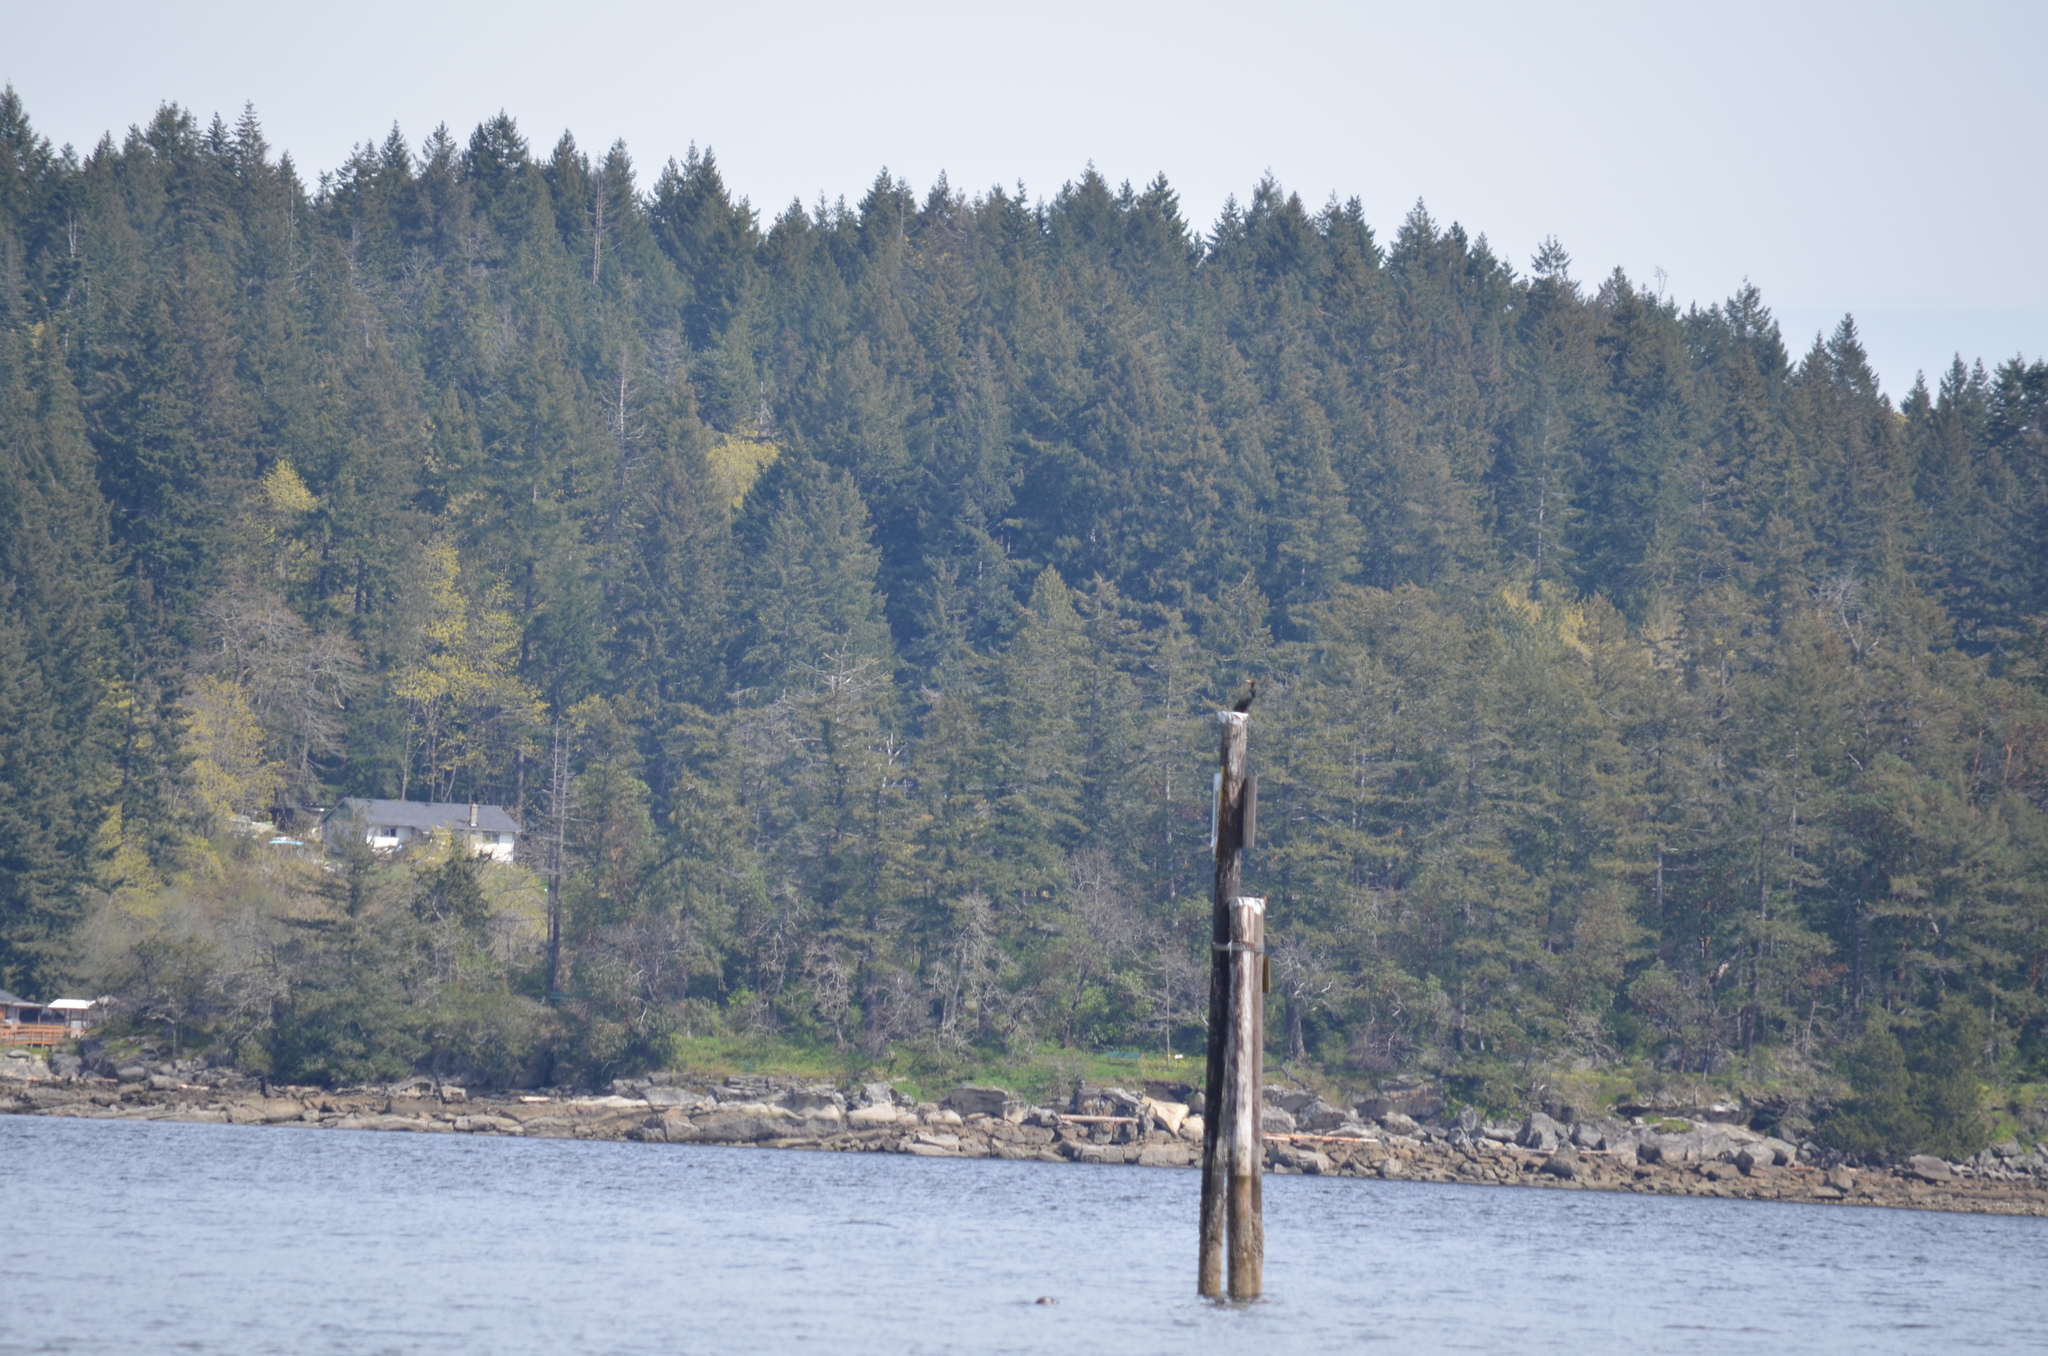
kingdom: Animalia
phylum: Chordata
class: Aves
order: Suliformes
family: Phalacrocoracidae
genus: Phalacrocorax
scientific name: Phalacrocorax auritus
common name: Double-crested cormorant
